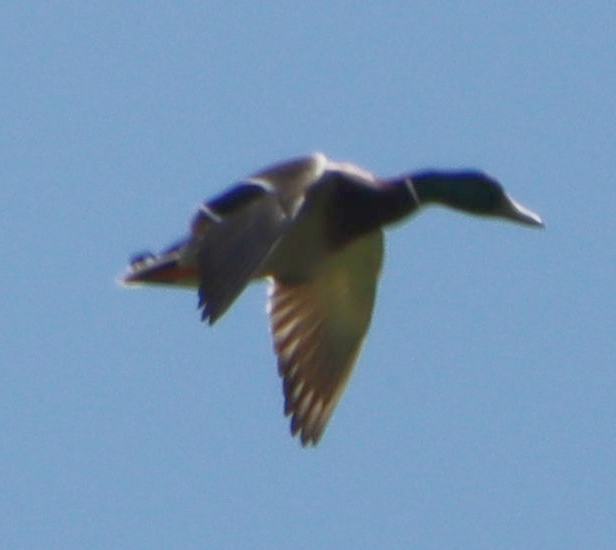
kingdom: Animalia
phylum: Chordata
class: Aves
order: Anseriformes
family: Anatidae
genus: Anas
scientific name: Anas platyrhynchos
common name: Mallard
